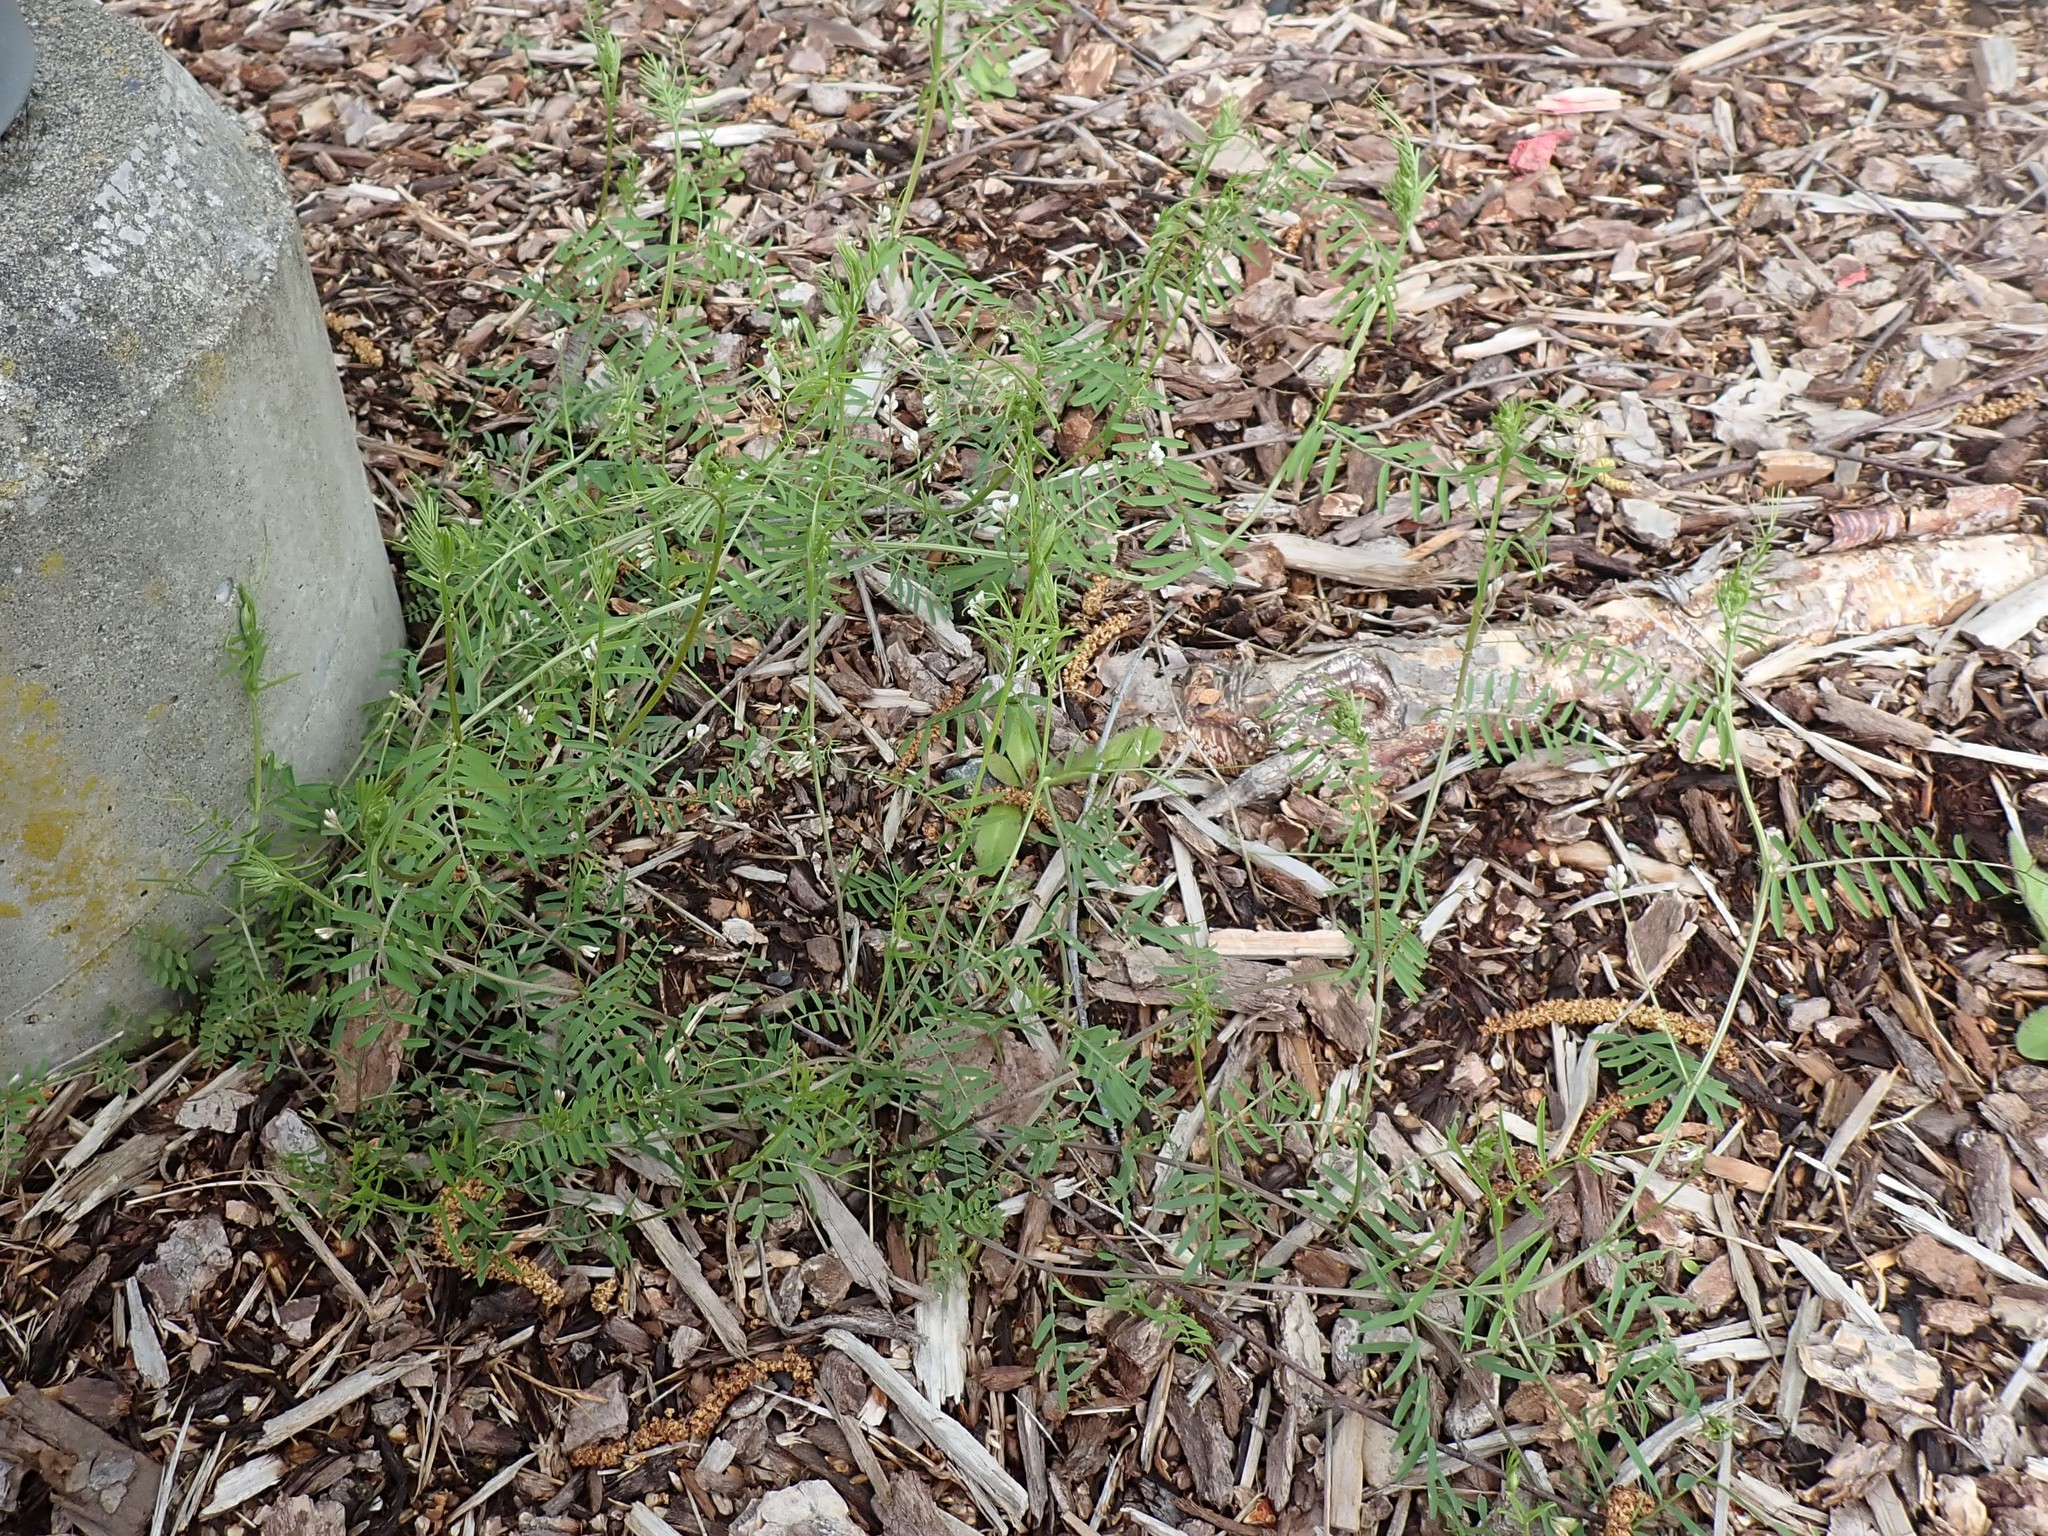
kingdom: Plantae
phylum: Tracheophyta
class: Magnoliopsida
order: Fabales
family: Fabaceae
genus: Vicia
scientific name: Vicia hirsuta
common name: Tiny vetch
